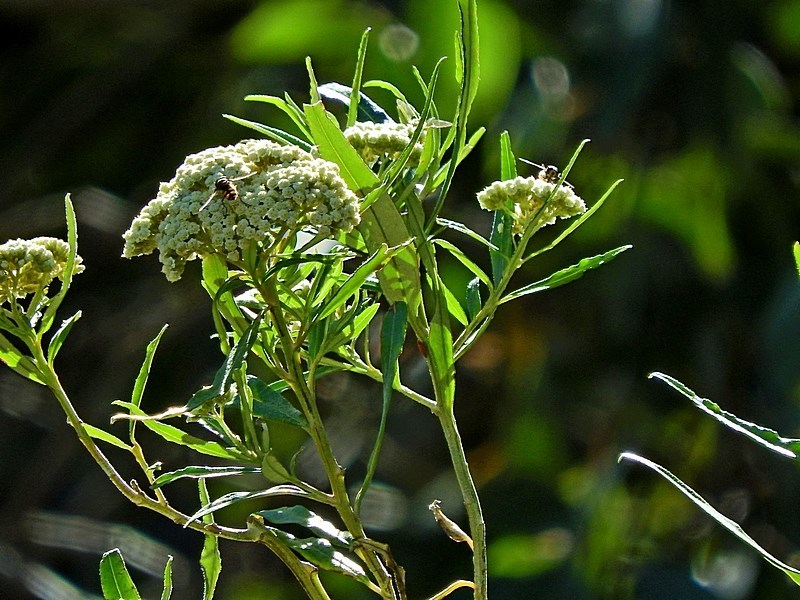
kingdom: Plantae
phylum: Tracheophyta
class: Magnoliopsida
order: Asterales
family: Asteraceae
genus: Ozothamnus
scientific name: Ozothamnus argophyllus
